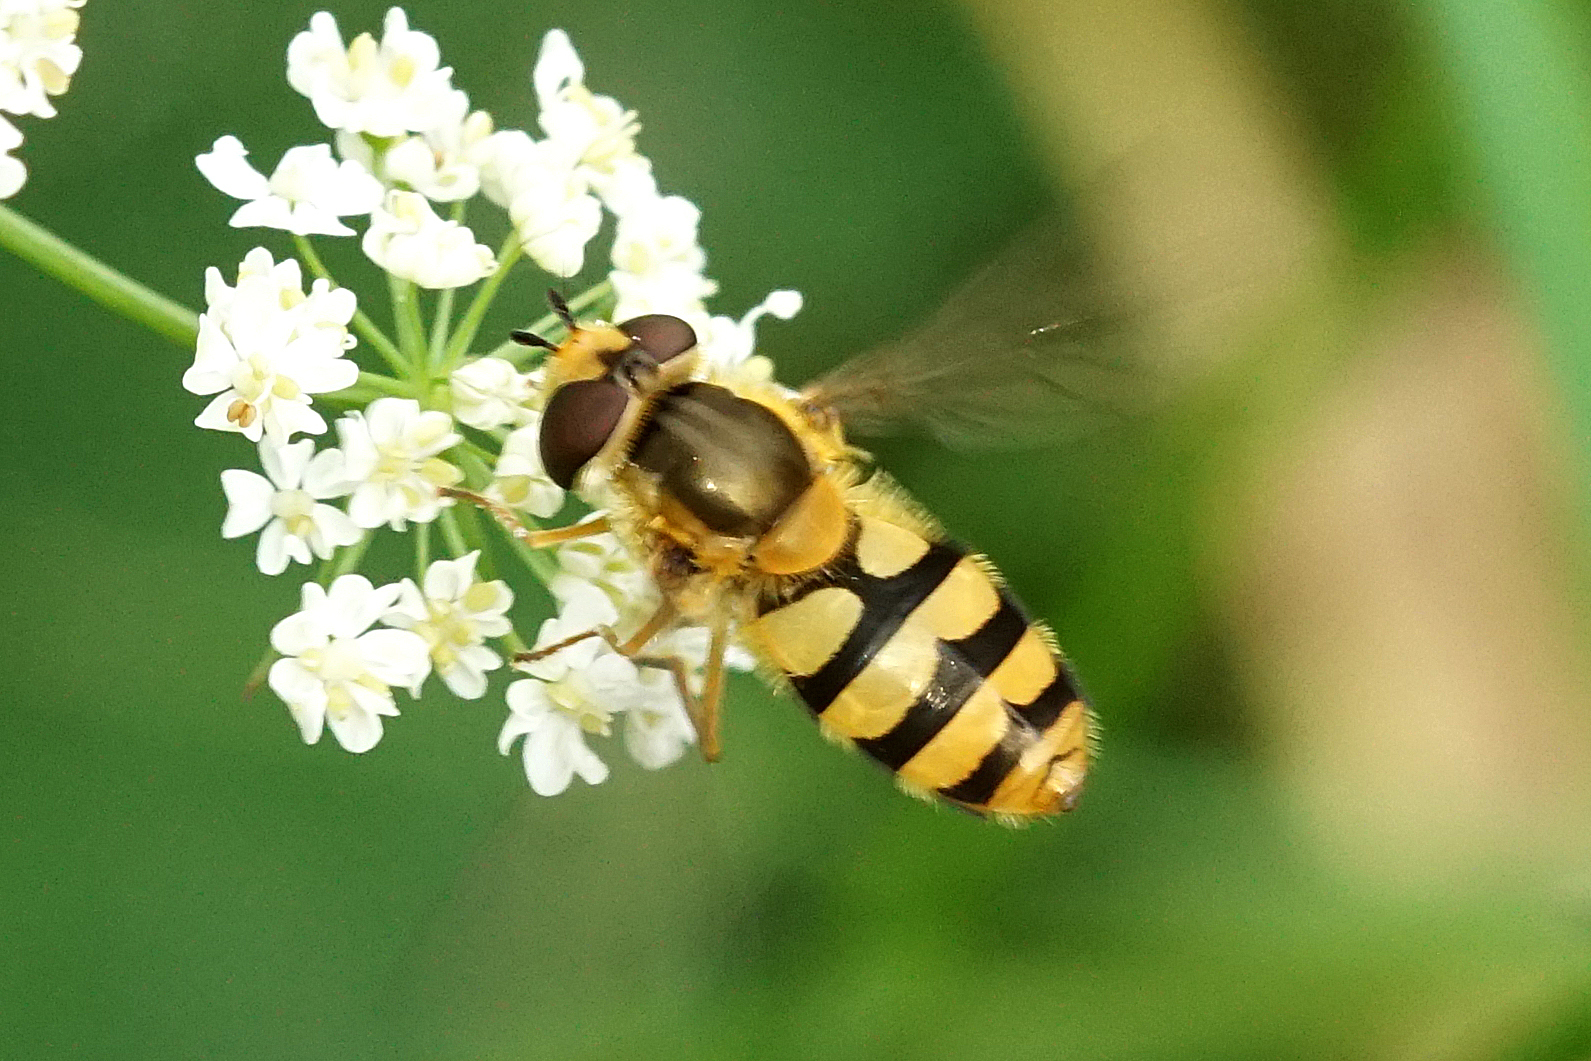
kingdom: Animalia
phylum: Arthropoda
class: Insecta
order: Diptera
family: Syrphidae
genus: Epistrophe
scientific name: Epistrophe diaphana
